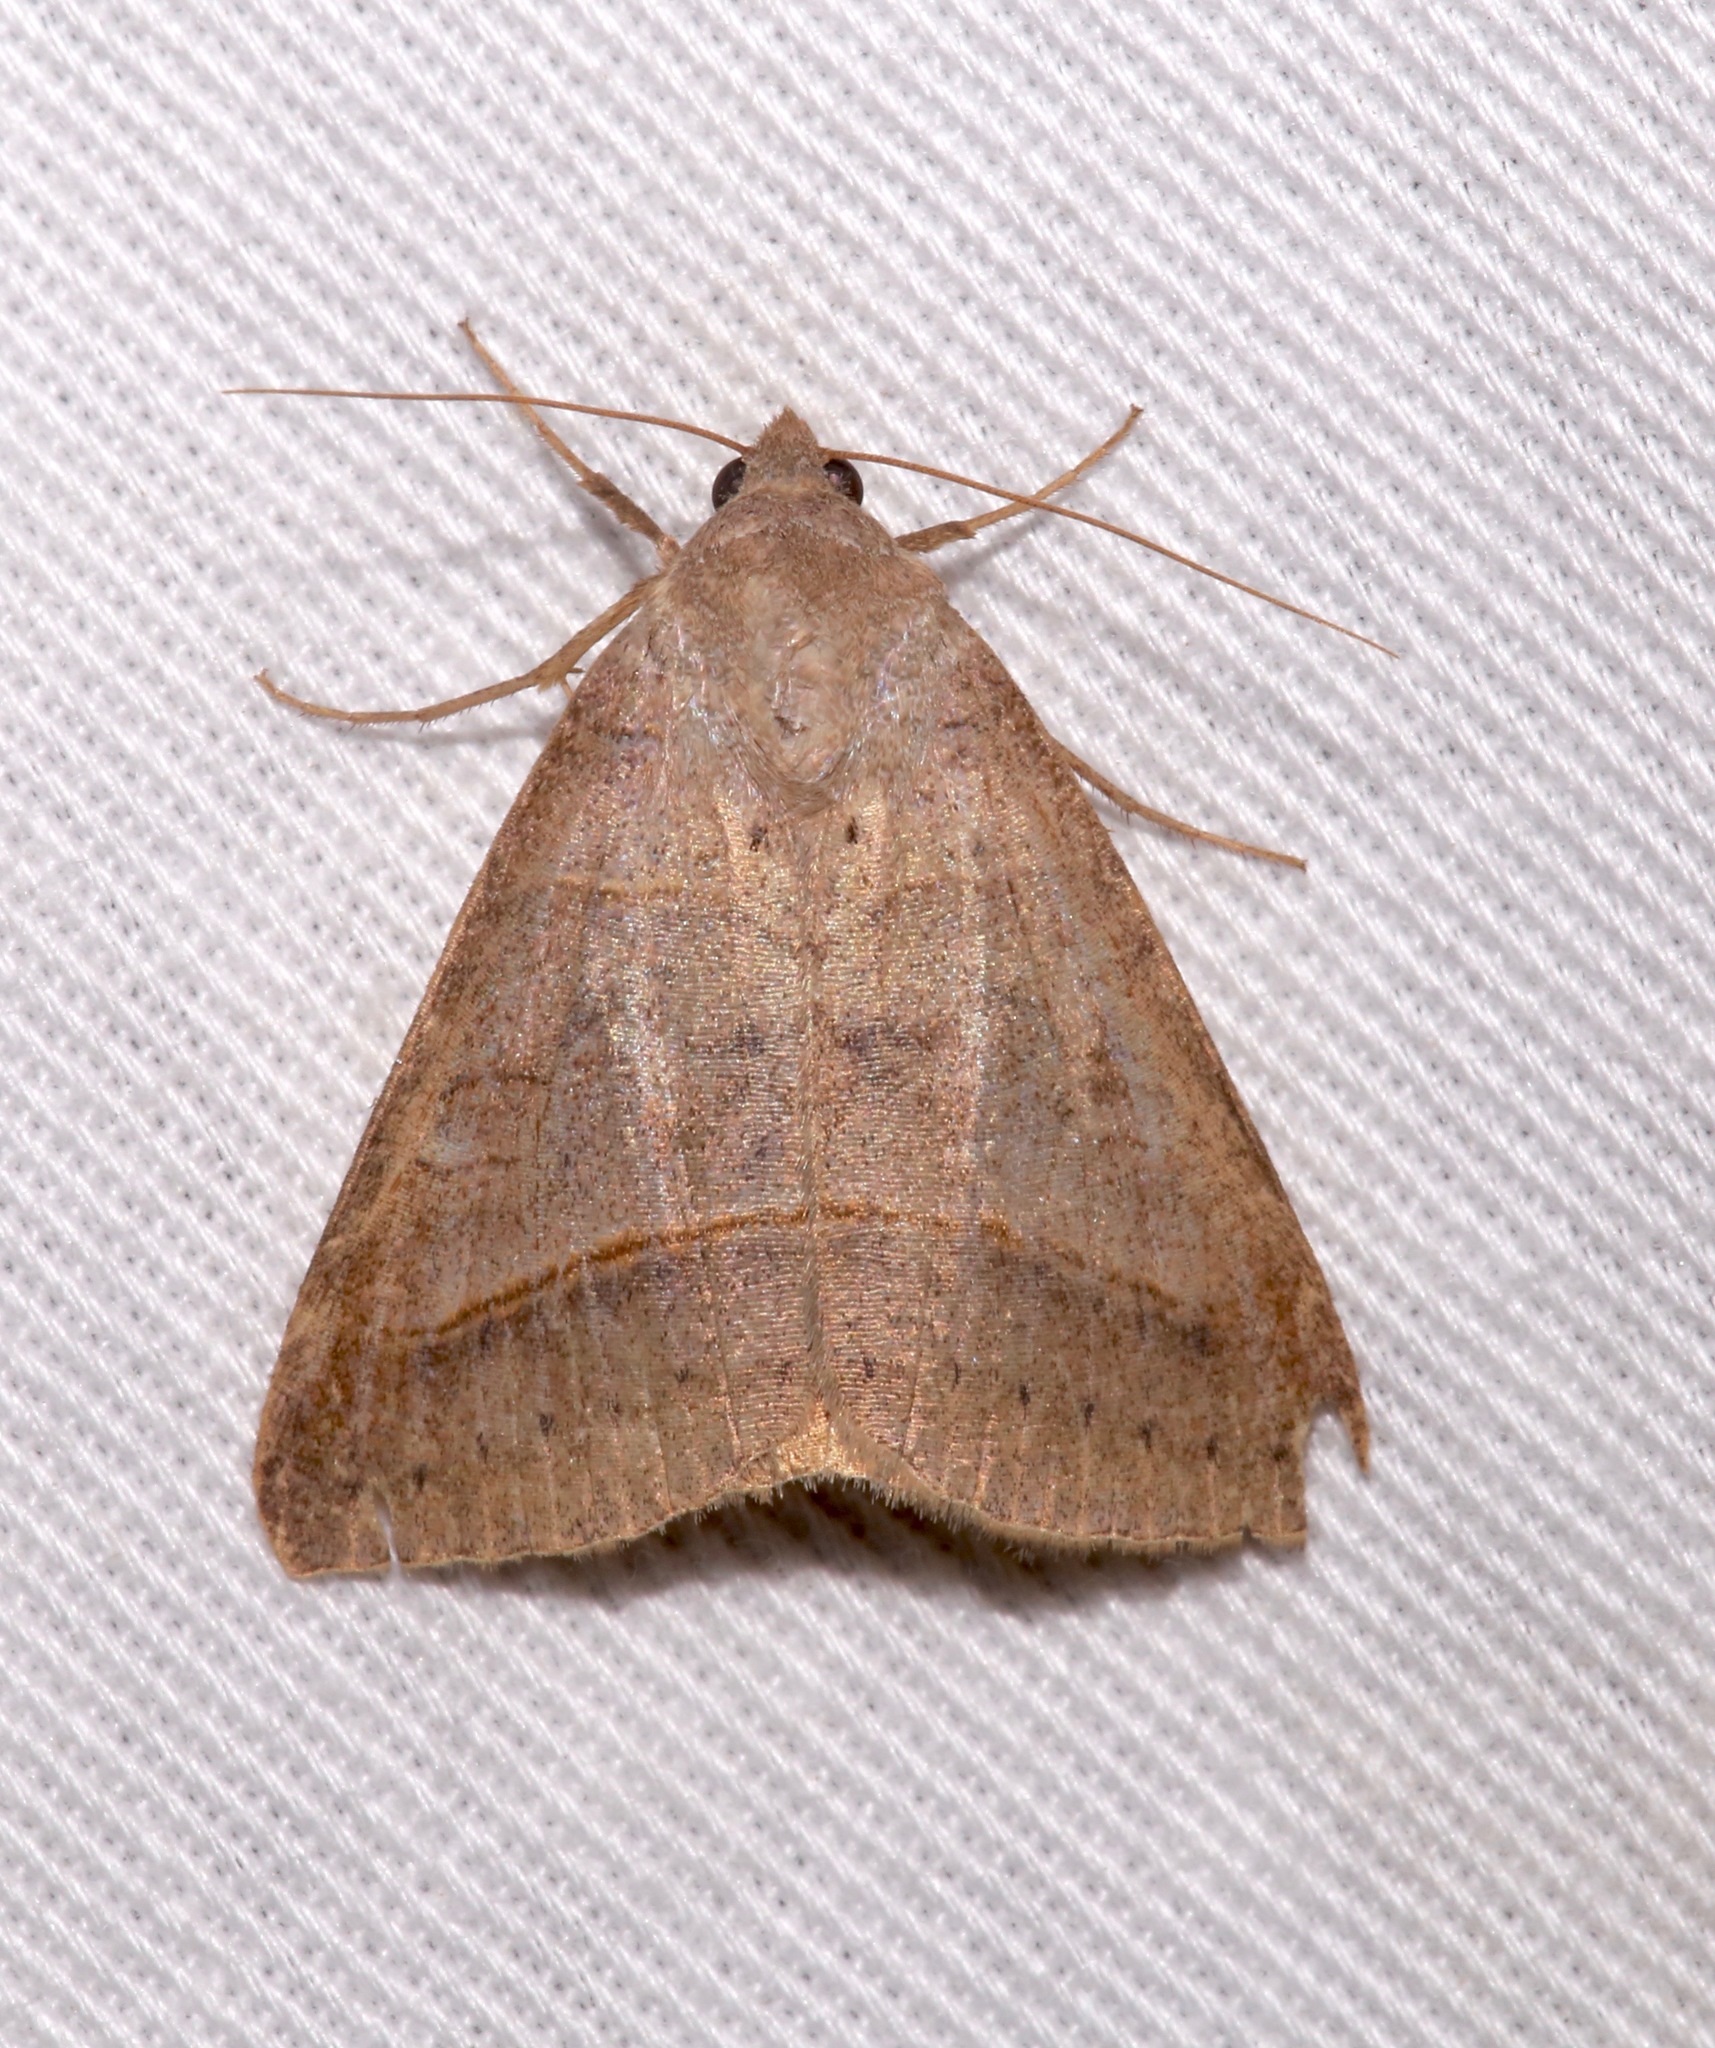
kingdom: Animalia
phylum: Arthropoda
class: Insecta
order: Lepidoptera
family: Erebidae
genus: Mocis
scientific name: Mocis texana
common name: Texas mocis moth
